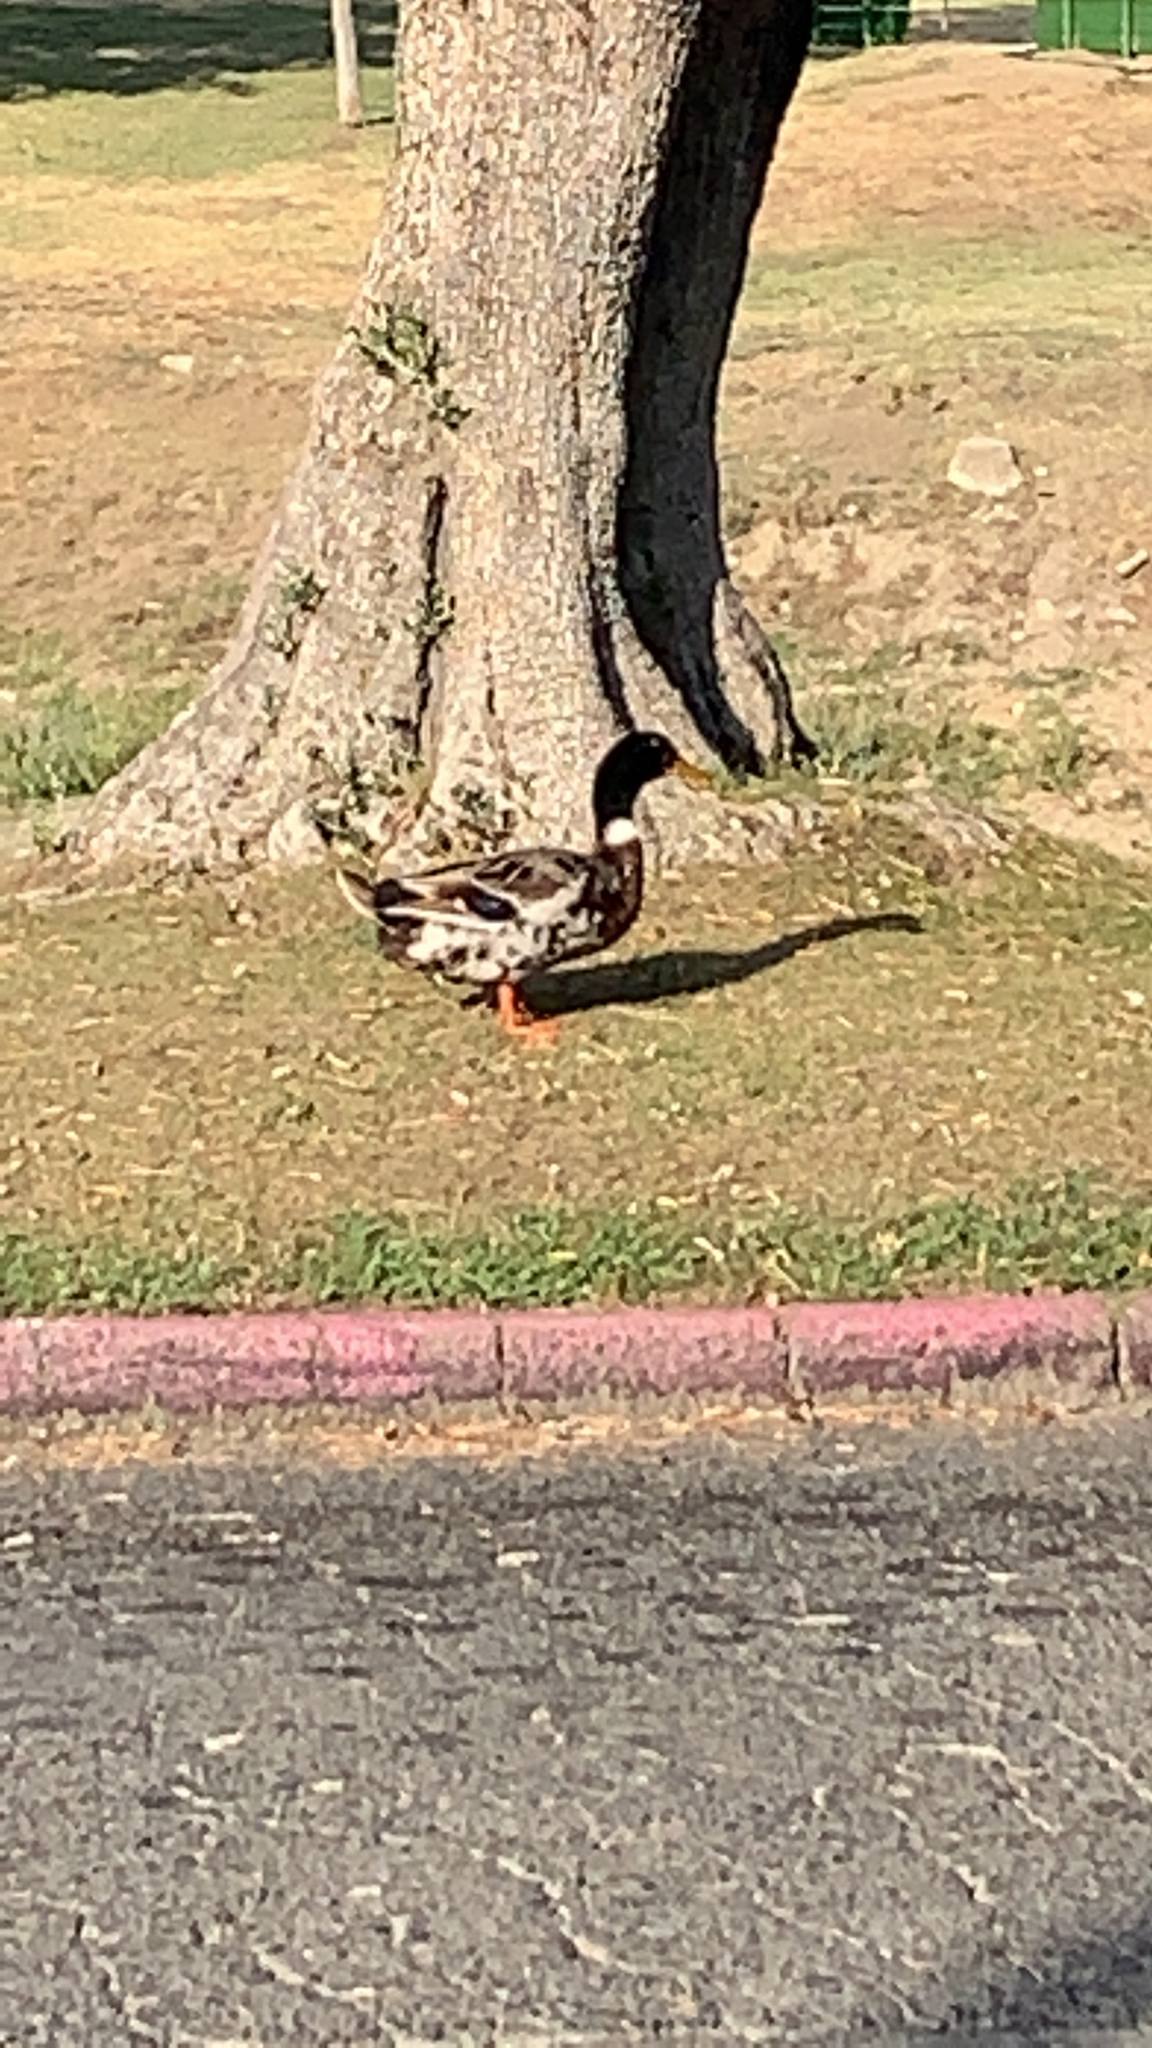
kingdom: Animalia
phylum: Chordata
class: Aves
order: Anseriformes
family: Anatidae
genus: Anas
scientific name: Anas platyrhynchos
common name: Mallard
